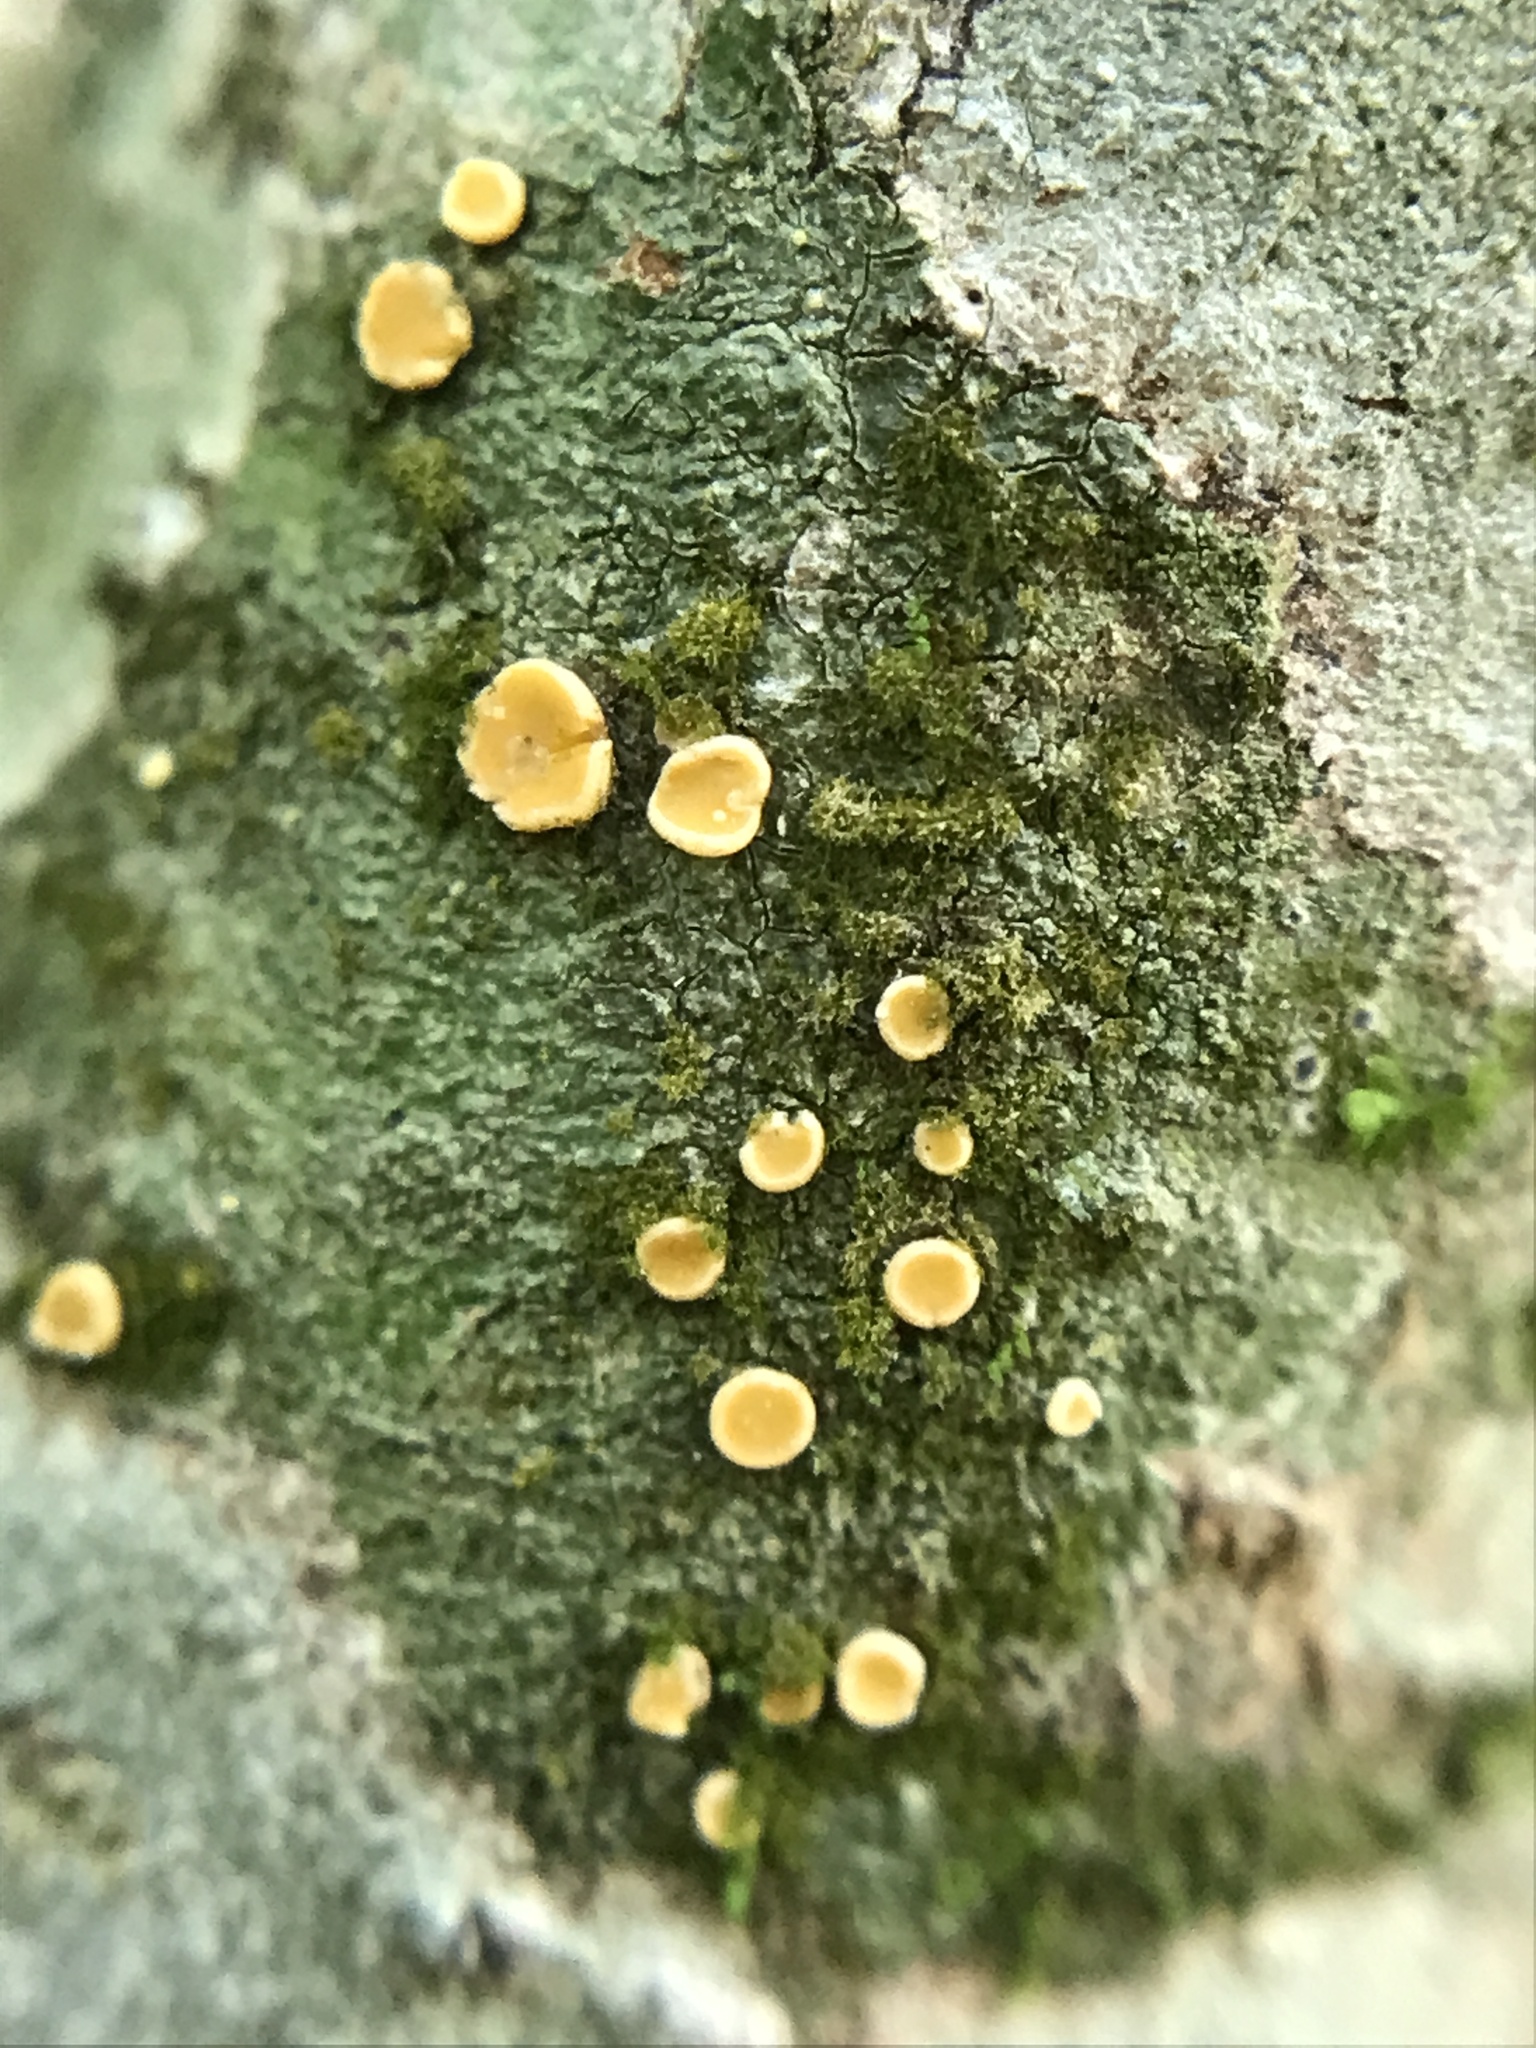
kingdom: Fungi
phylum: Ascomycota
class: Lecanoromycetes
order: Ostropales
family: Coenogoniaceae
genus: Coenogonium
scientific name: Coenogonium luteum
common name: Orange dimple lichen
